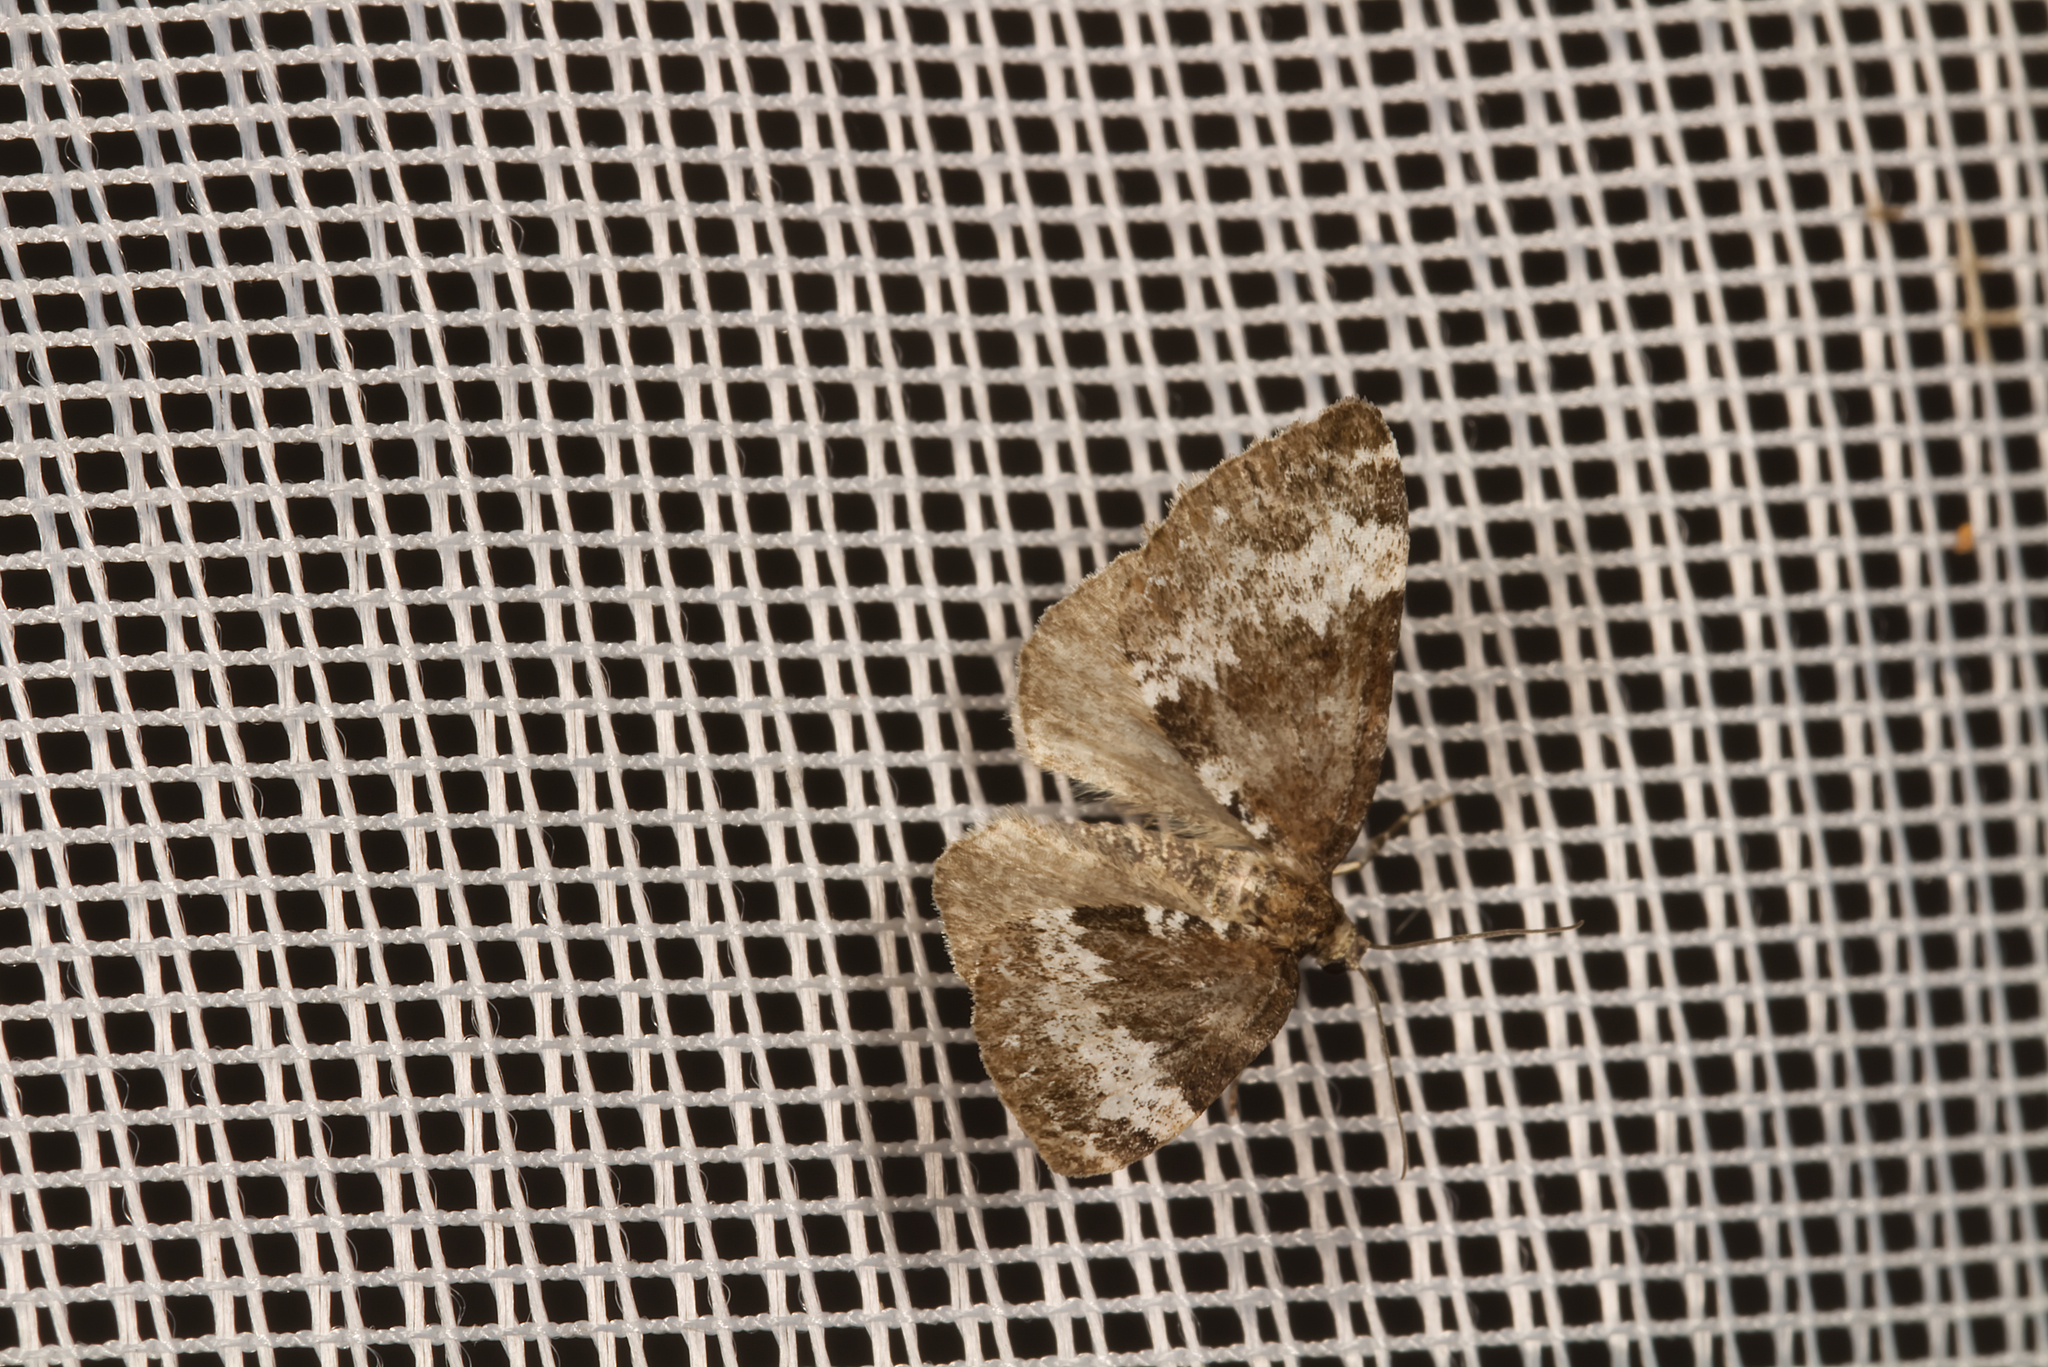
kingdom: Animalia
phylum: Arthropoda
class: Insecta
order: Lepidoptera
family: Geometridae
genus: Perizoma
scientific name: Perizoma alchemillata
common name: Small rivulet
